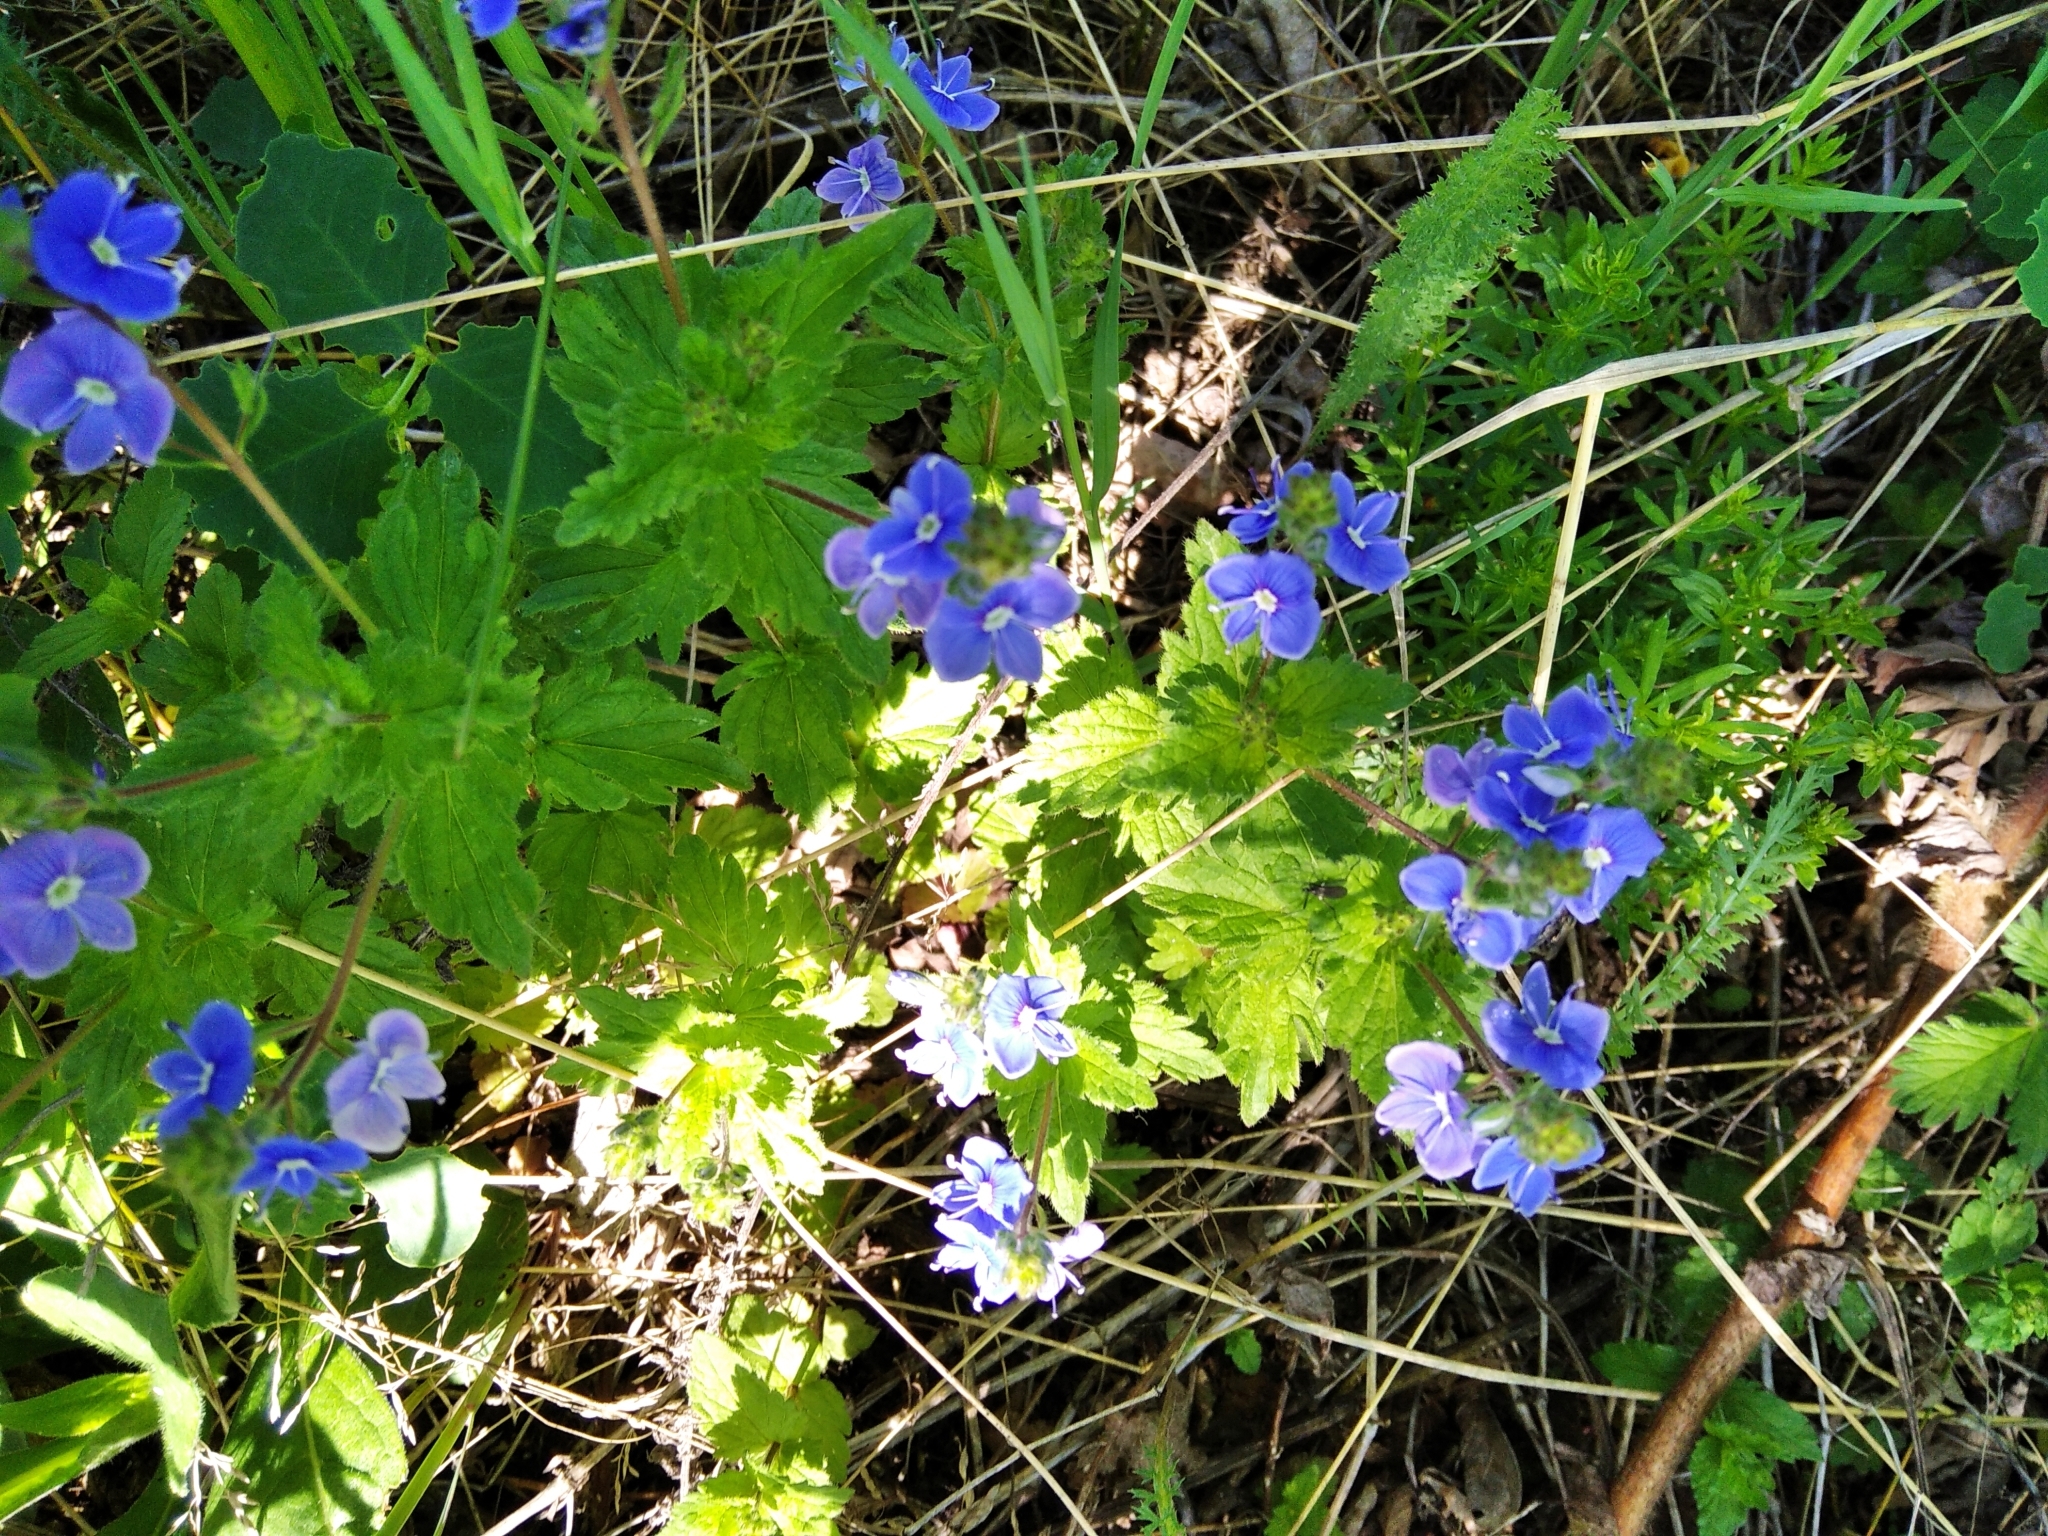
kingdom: Plantae
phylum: Tracheophyta
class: Magnoliopsida
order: Lamiales
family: Plantaginaceae
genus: Veronica
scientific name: Veronica chamaedrys
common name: Germander speedwell
